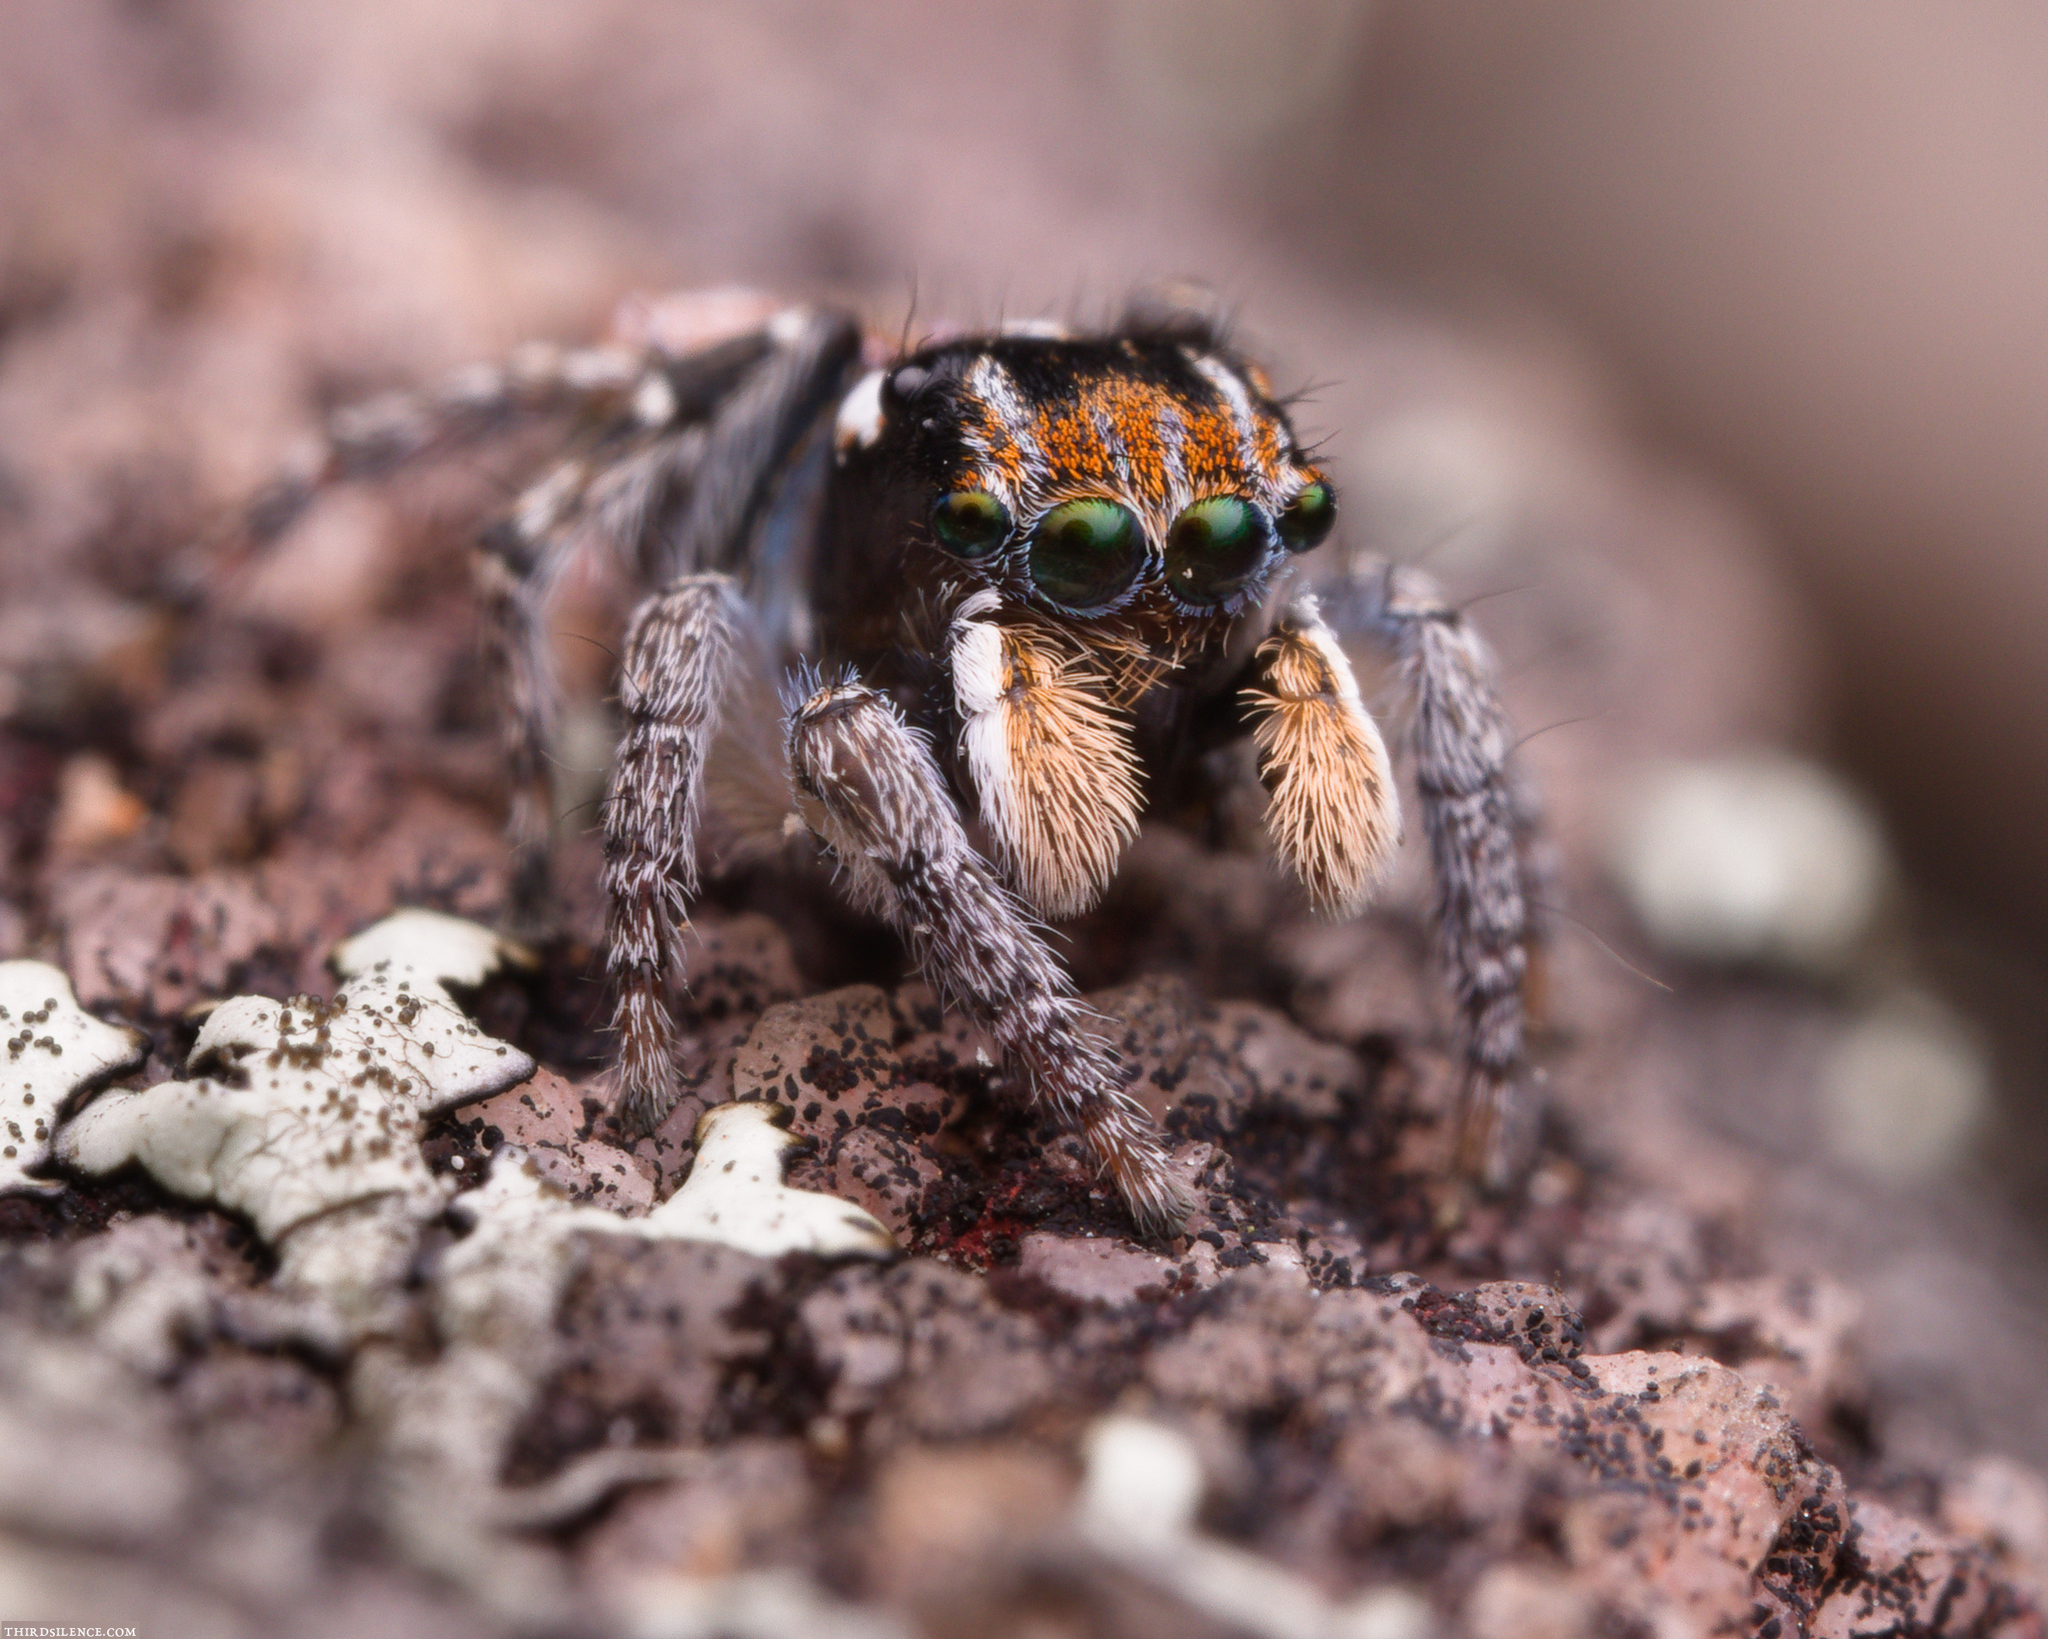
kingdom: Animalia
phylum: Arthropoda
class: Arachnida
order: Araneae
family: Salticidae
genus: Maratus
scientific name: Maratus plumosus
